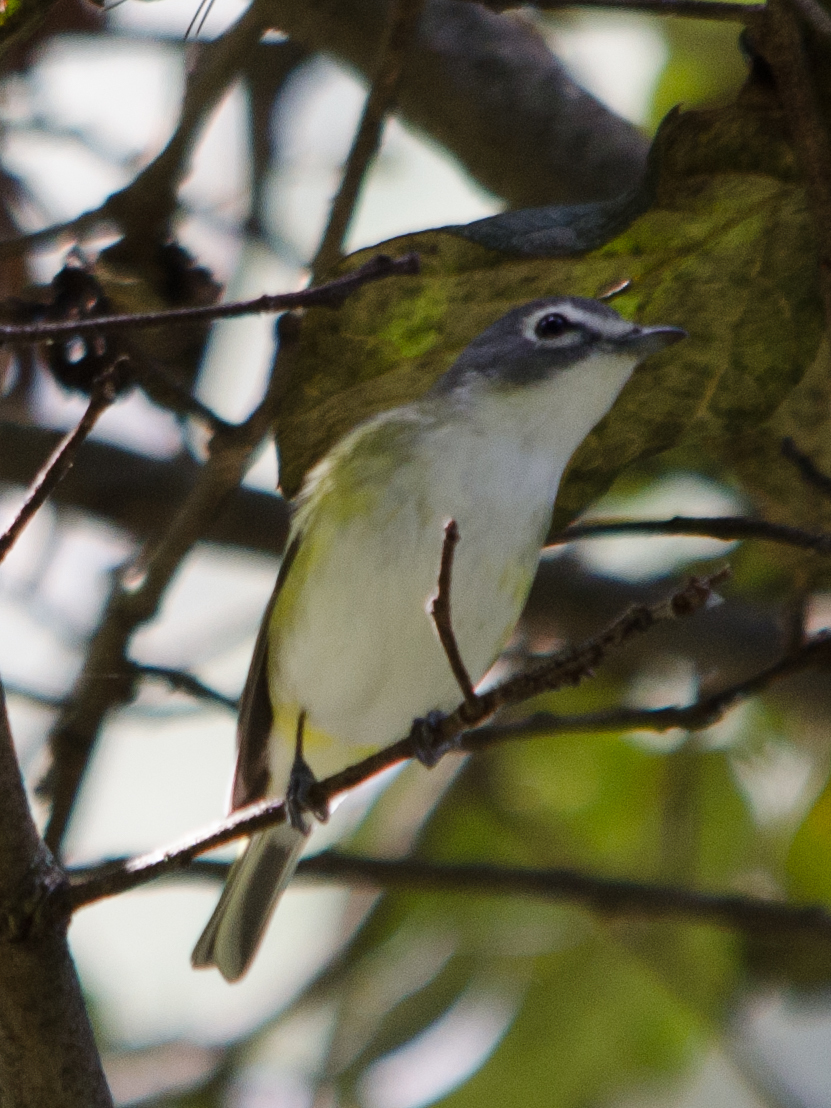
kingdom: Animalia
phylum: Chordata
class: Aves
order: Passeriformes
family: Vireonidae
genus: Vireo
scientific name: Vireo solitarius
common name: Blue-headed vireo
